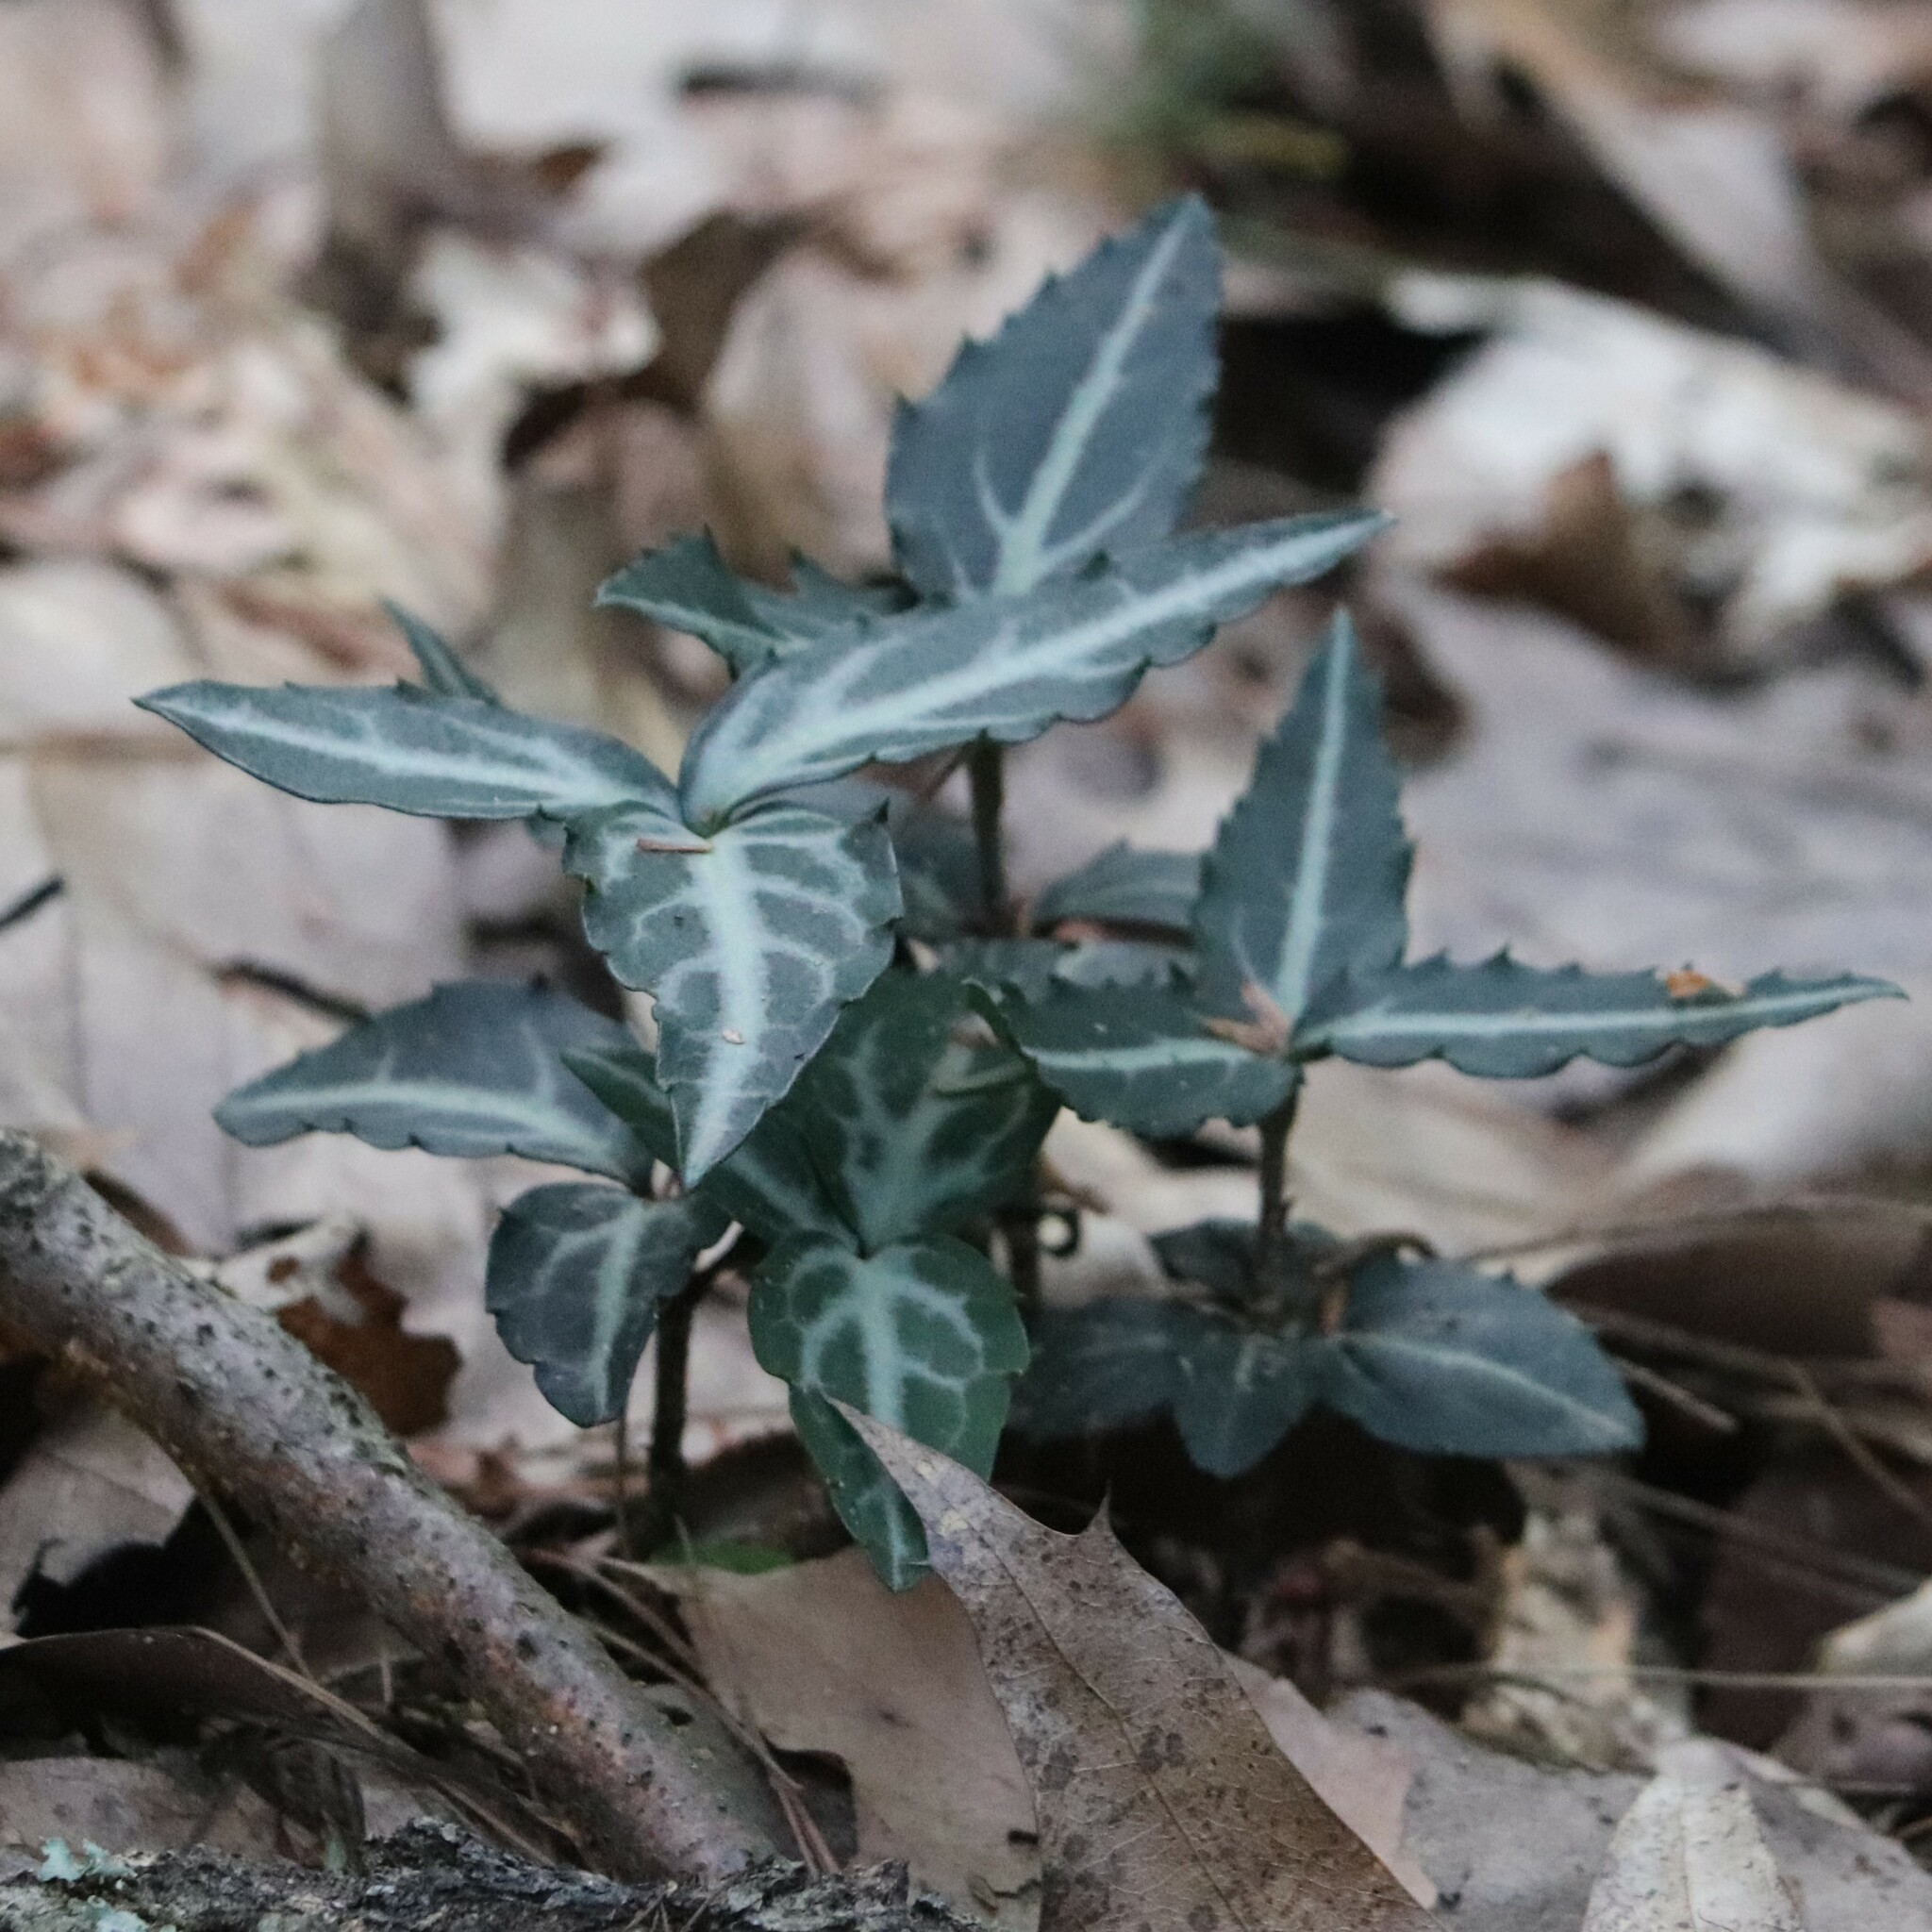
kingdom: Plantae
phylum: Tracheophyta
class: Magnoliopsida
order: Ericales
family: Ericaceae
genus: Chimaphila
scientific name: Chimaphila maculata
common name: Spotted pipsissewa
